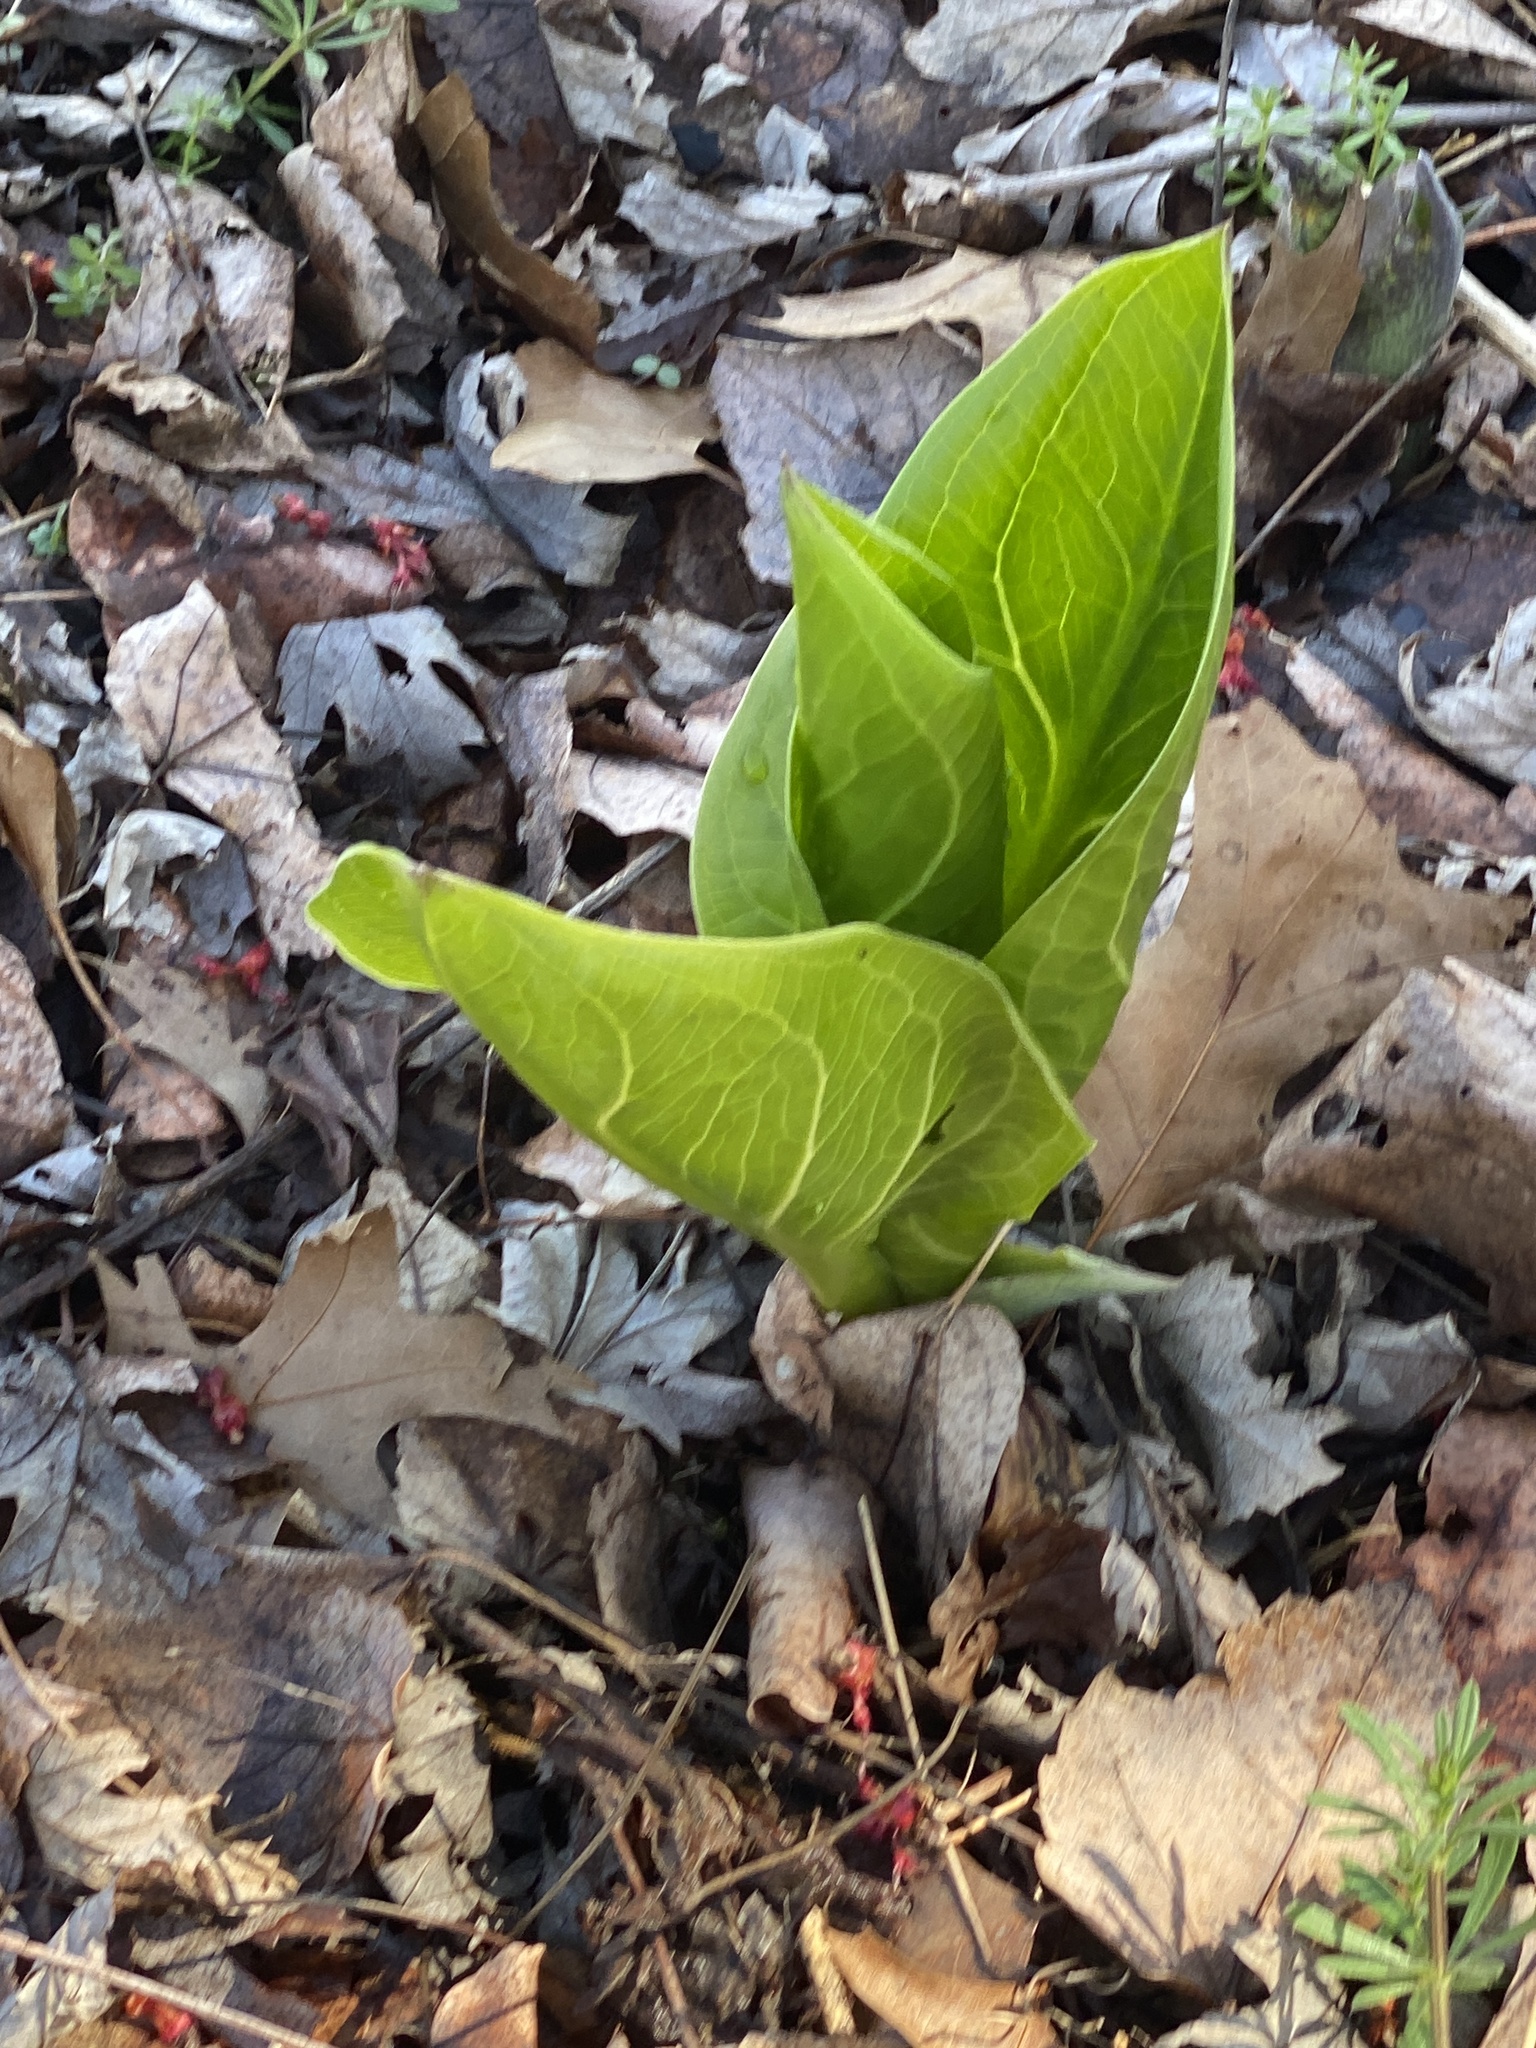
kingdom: Plantae
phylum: Tracheophyta
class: Liliopsida
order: Alismatales
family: Araceae
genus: Symplocarpus
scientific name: Symplocarpus foetidus
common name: Eastern skunk cabbage
